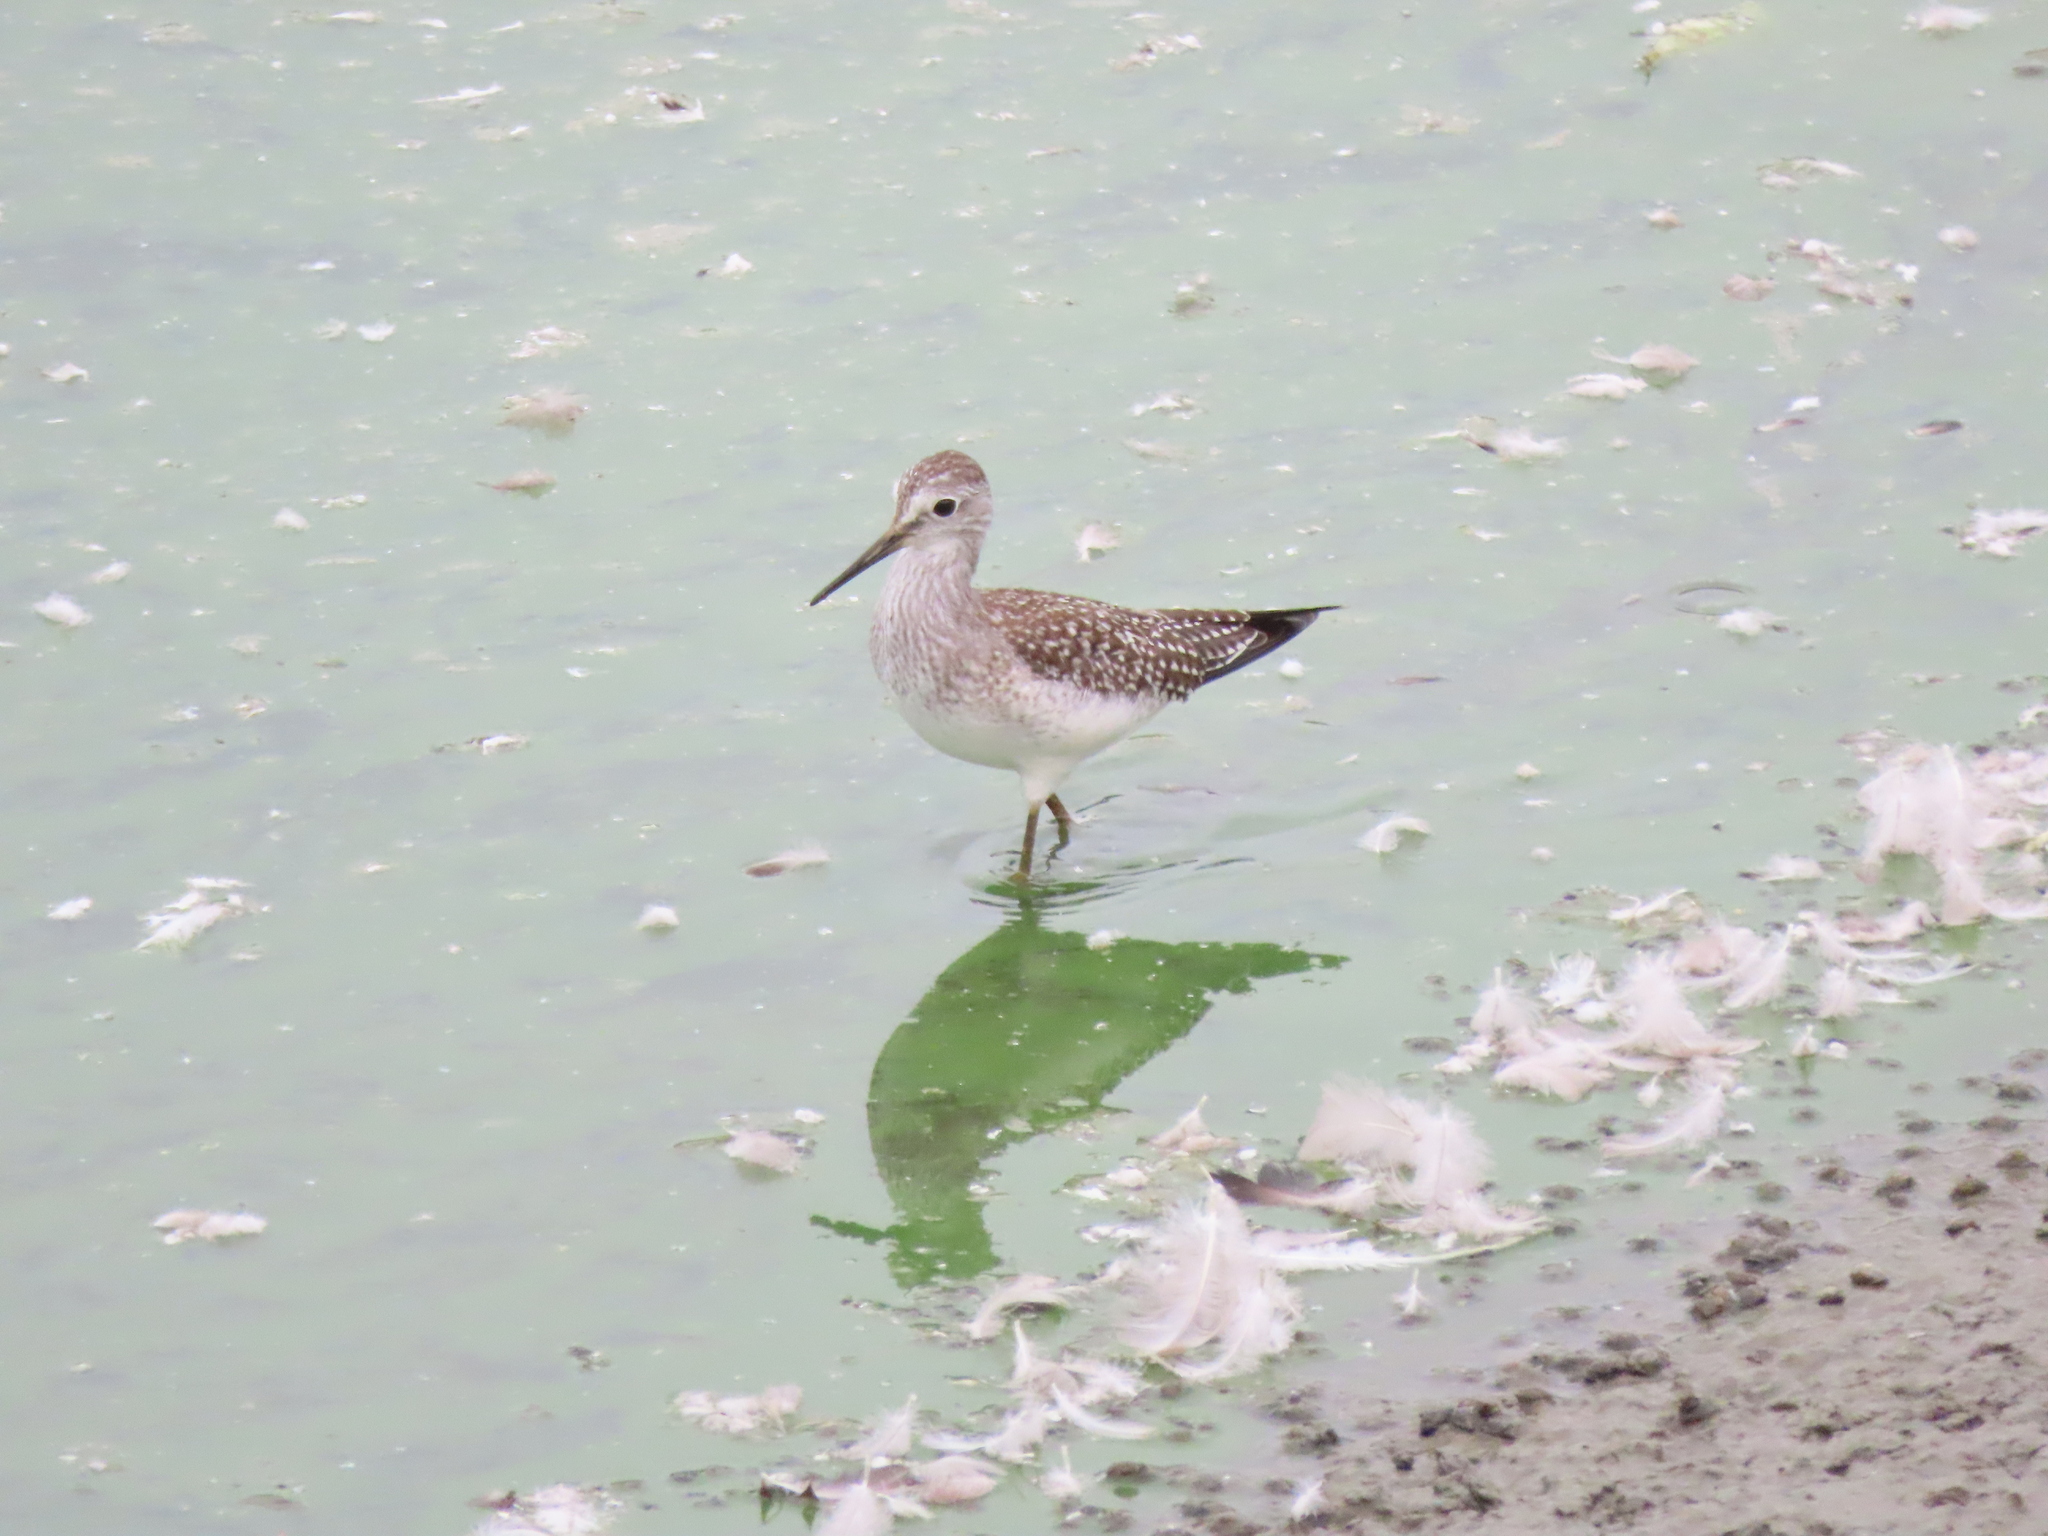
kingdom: Animalia
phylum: Chordata
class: Aves
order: Charadriiformes
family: Scolopacidae
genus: Tringa
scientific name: Tringa flavipes
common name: Lesser yellowlegs
